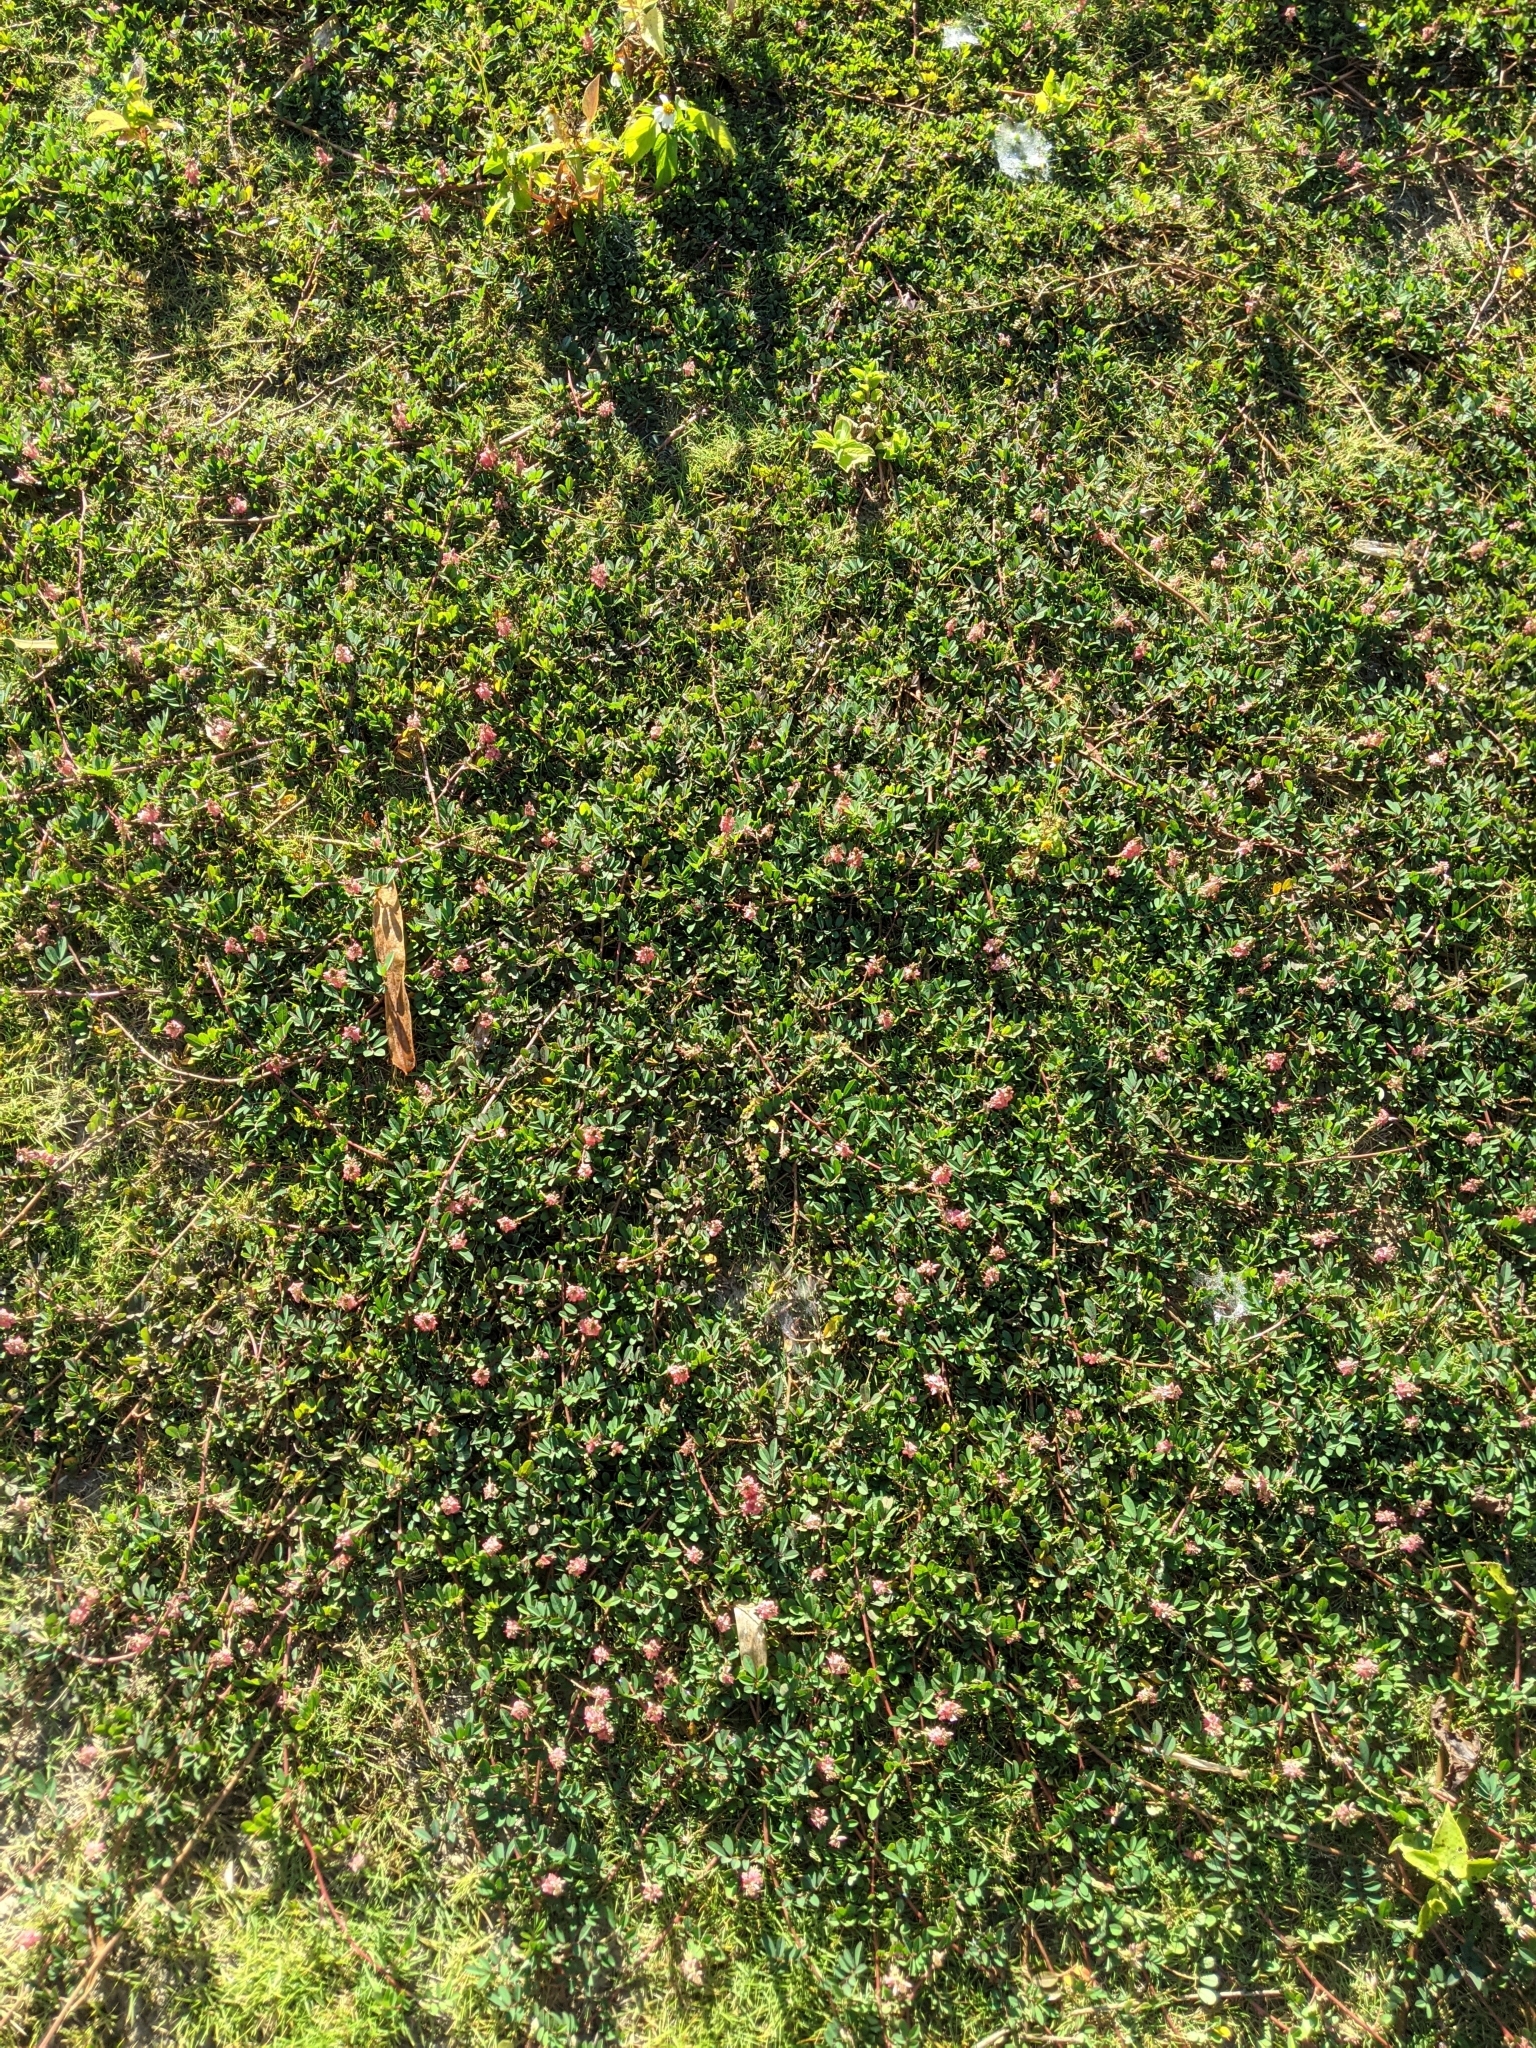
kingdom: Plantae
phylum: Tracheophyta
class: Magnoliopsida
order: Fabales
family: Fabaceae
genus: Indigofera
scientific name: Indigofera hendecaphylla
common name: Trailing indigo
